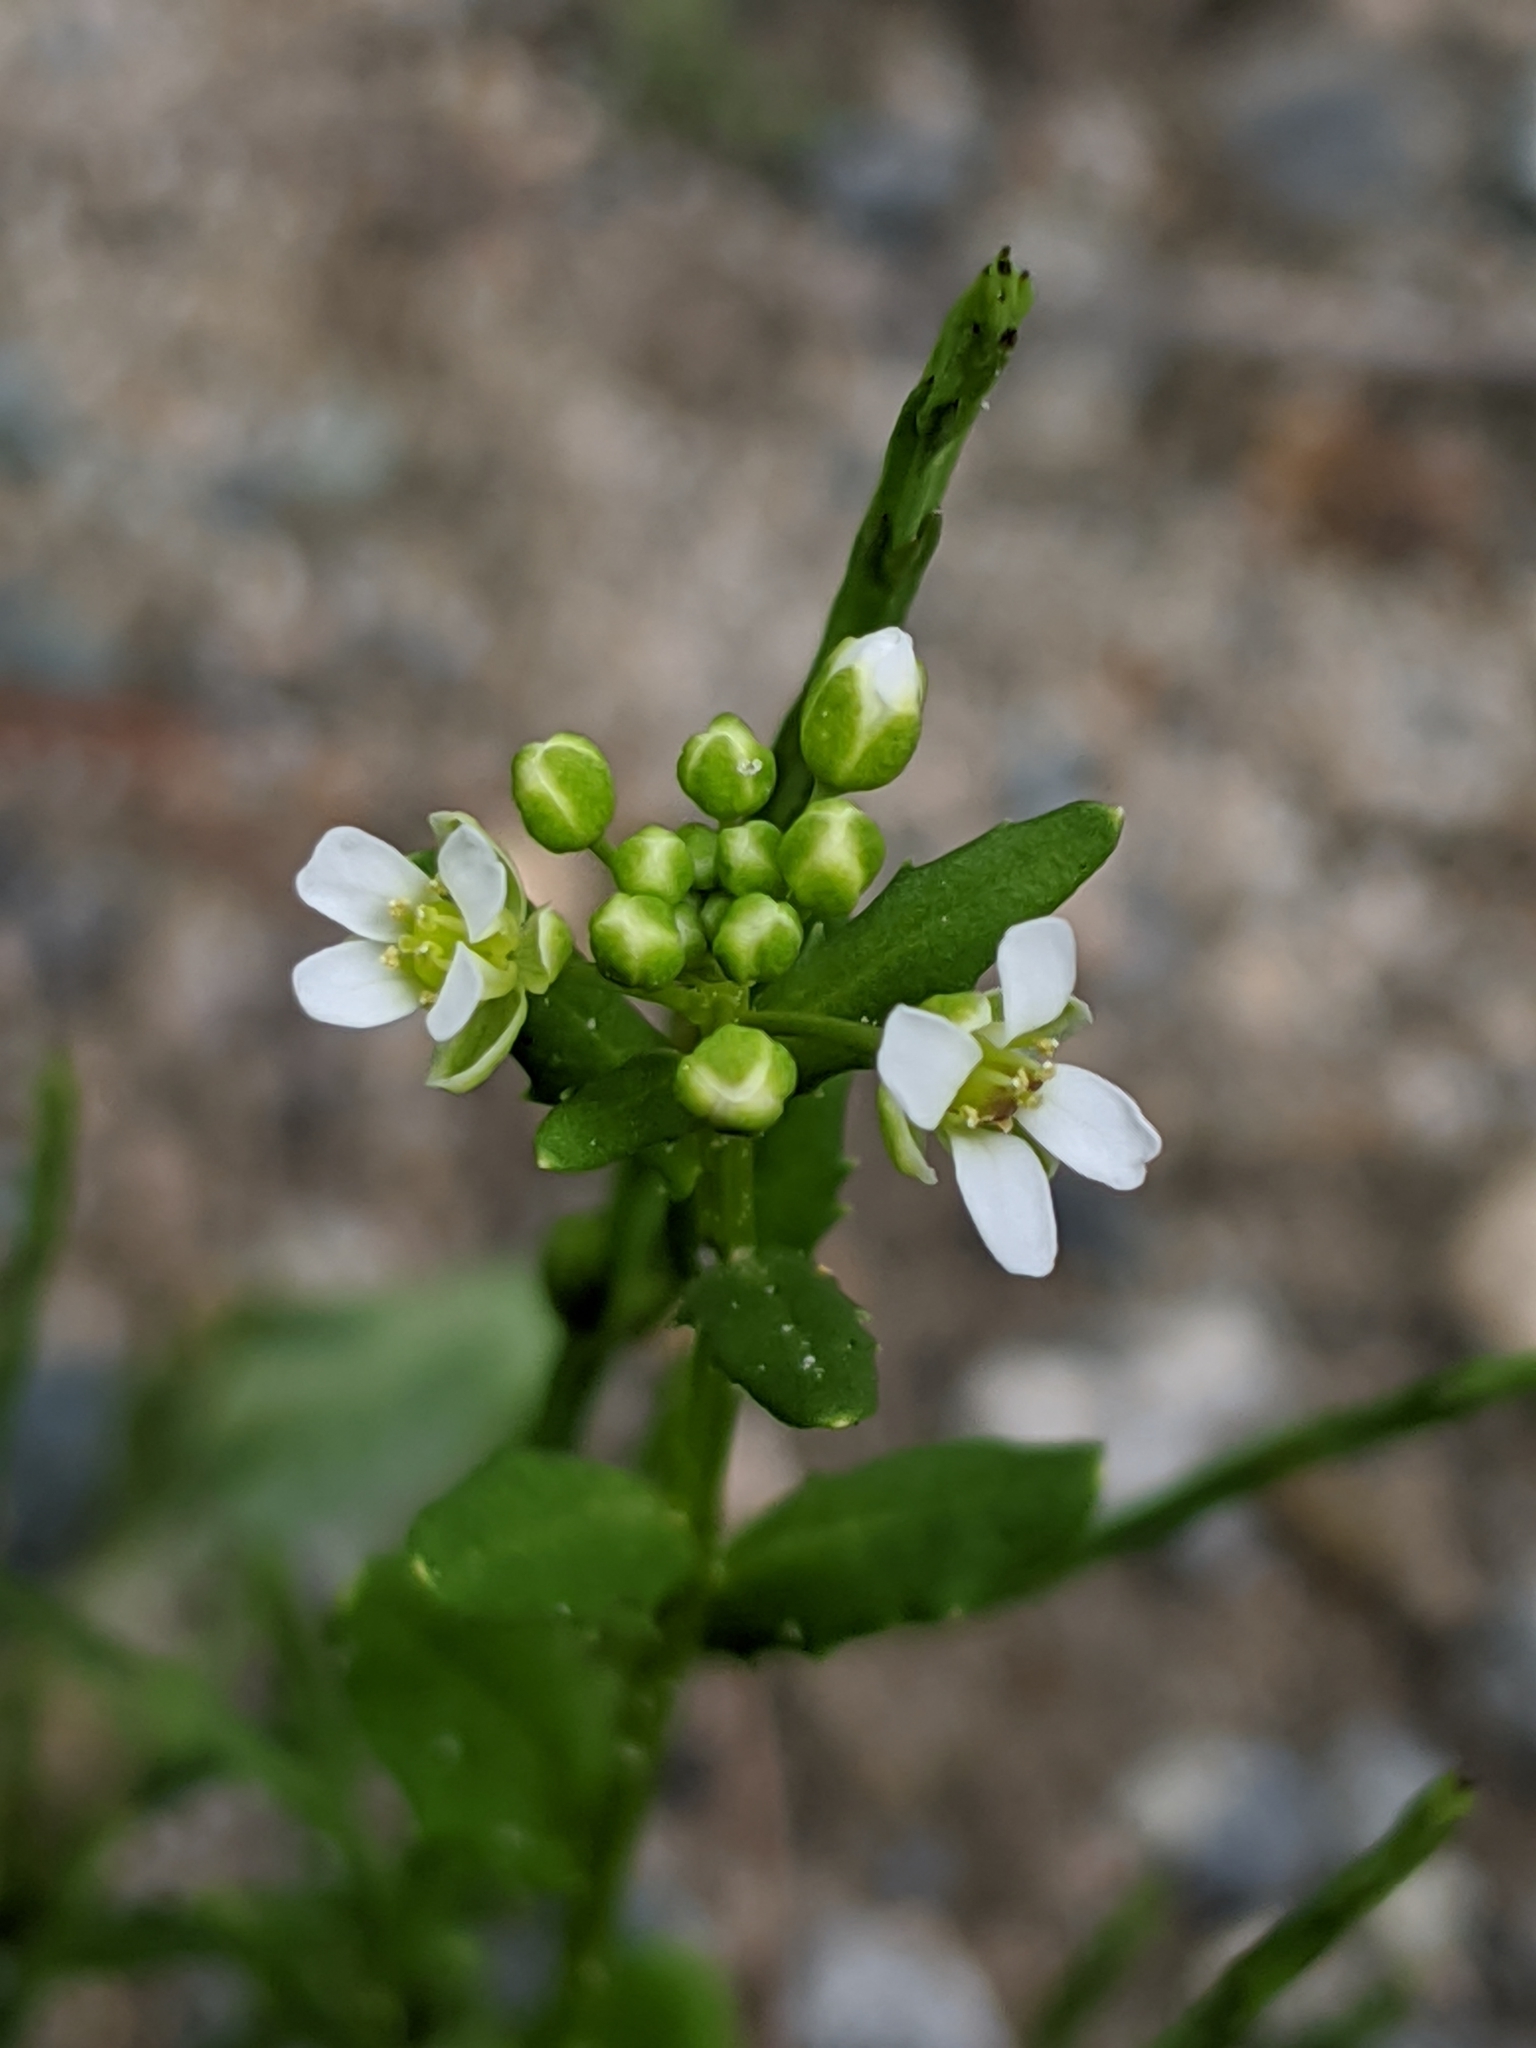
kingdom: Plantae
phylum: Tracheophyta
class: Magnoliopsida
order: Brassicales
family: Brassicaceae
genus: Thlaspi
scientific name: Thlaspi arvense
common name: Field pennycress
